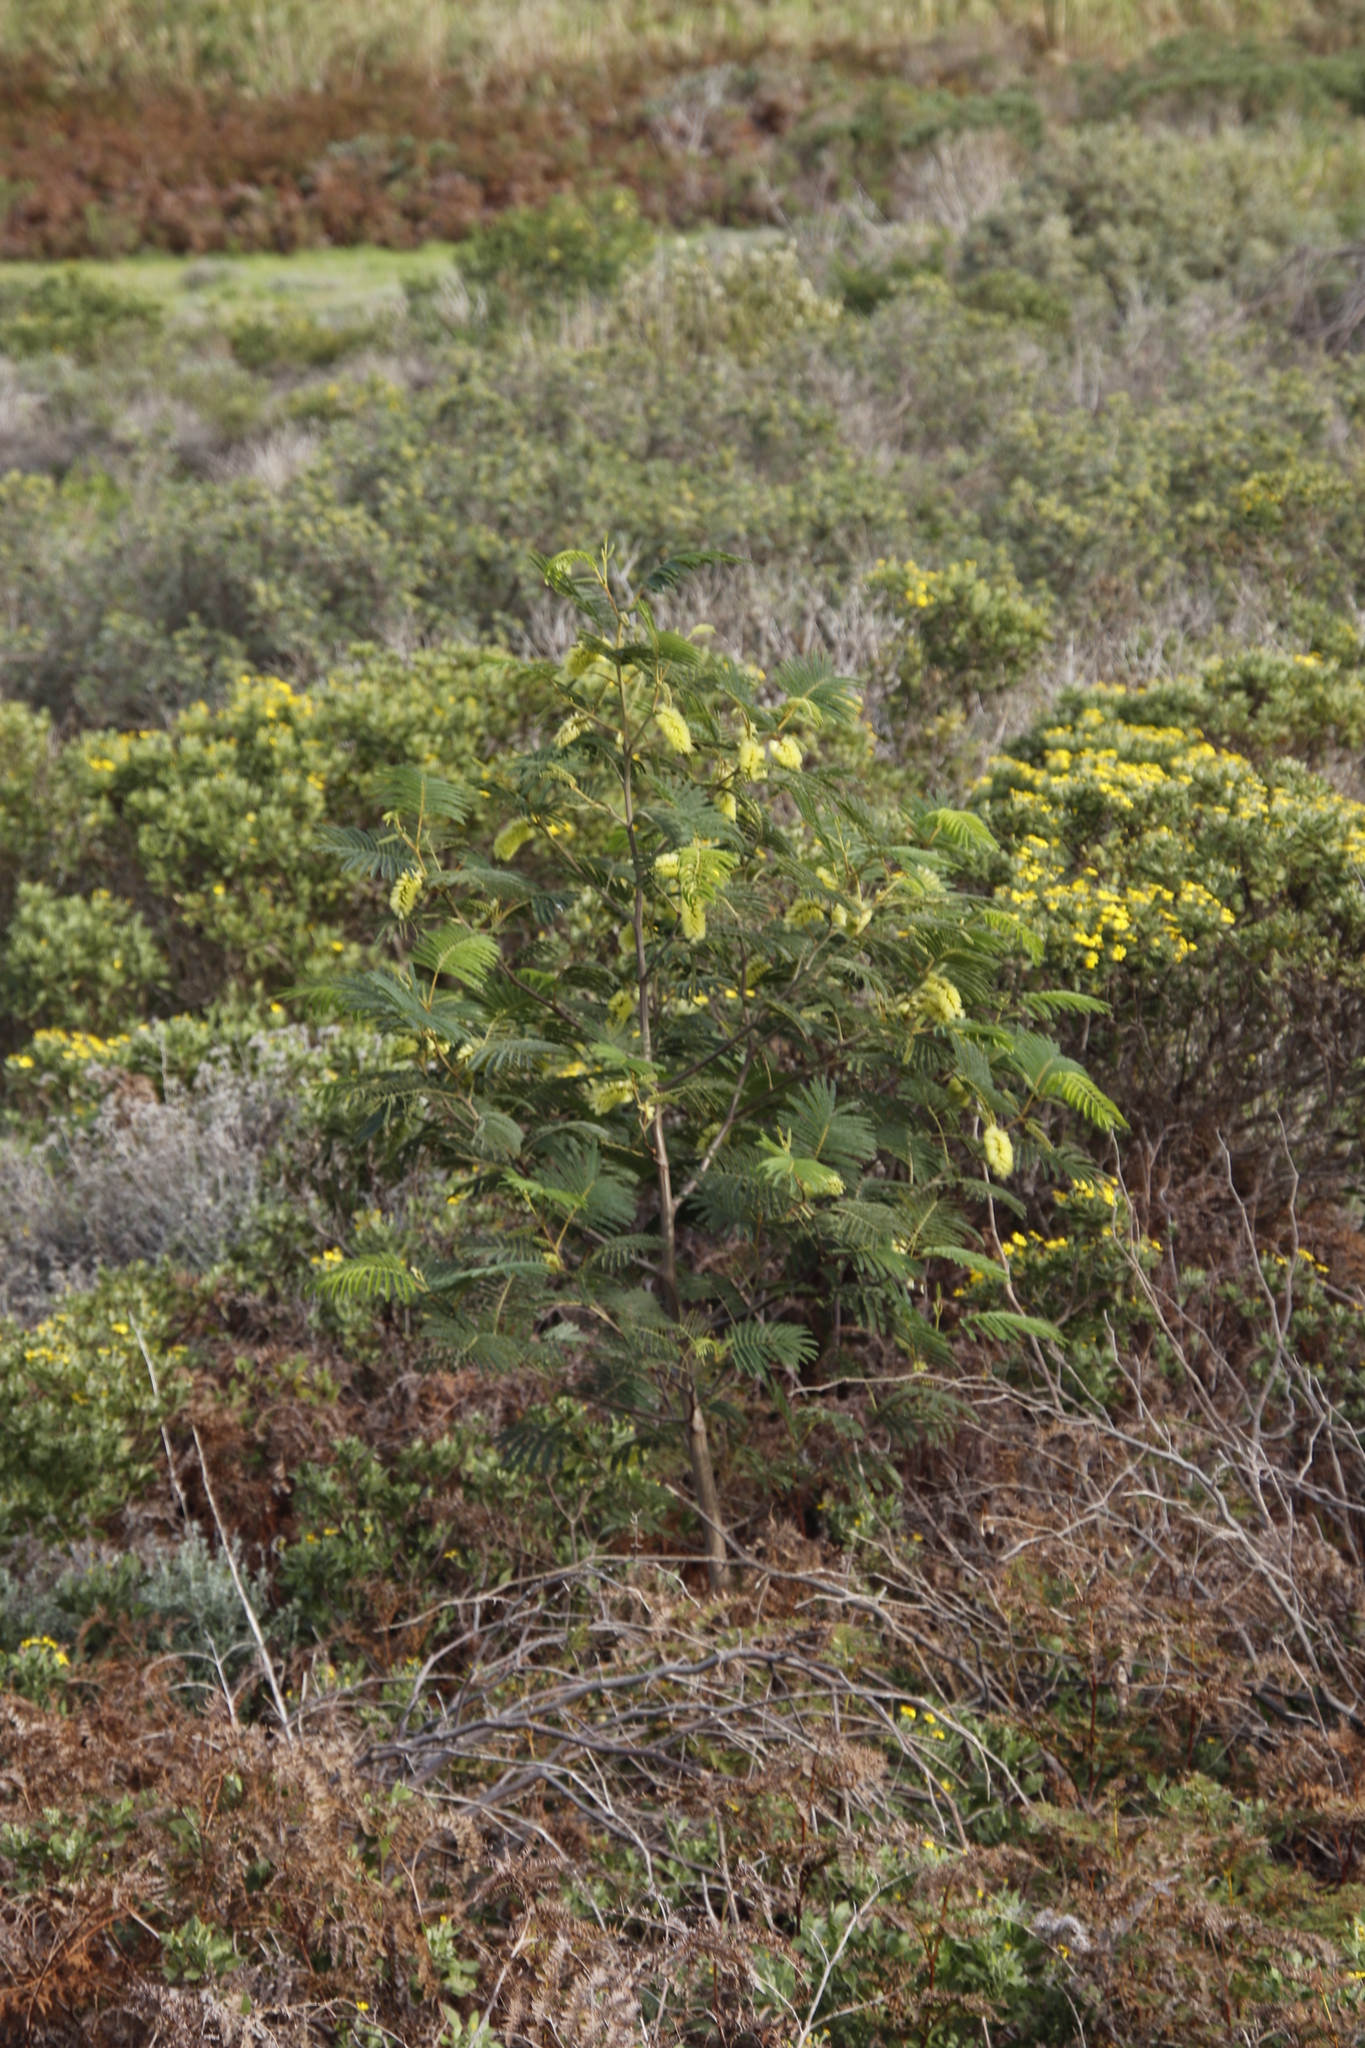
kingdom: Plantae
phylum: Tracheophyta
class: Magnoliopsida
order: Fabales
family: Fabaceae
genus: Paraserianthes
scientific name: Paraserianthes lophantha
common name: Plume albizia
